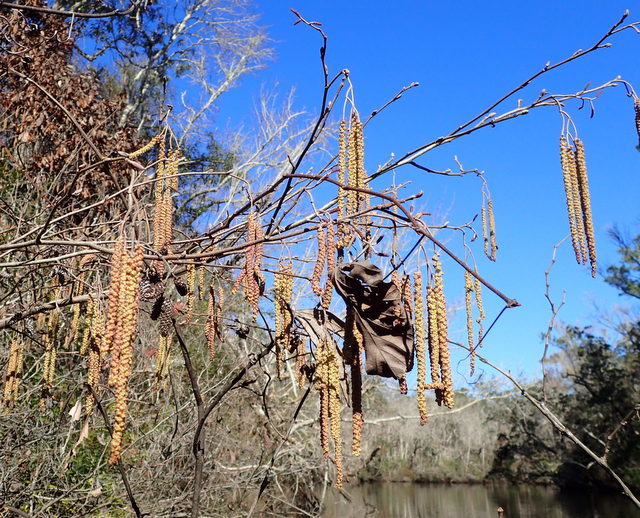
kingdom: Plantae
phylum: Tracheophyta
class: Magnoliopsida
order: Fagales
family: Betulaceae
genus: Alnus
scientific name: Alnus serrulata
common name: Hazel alder
